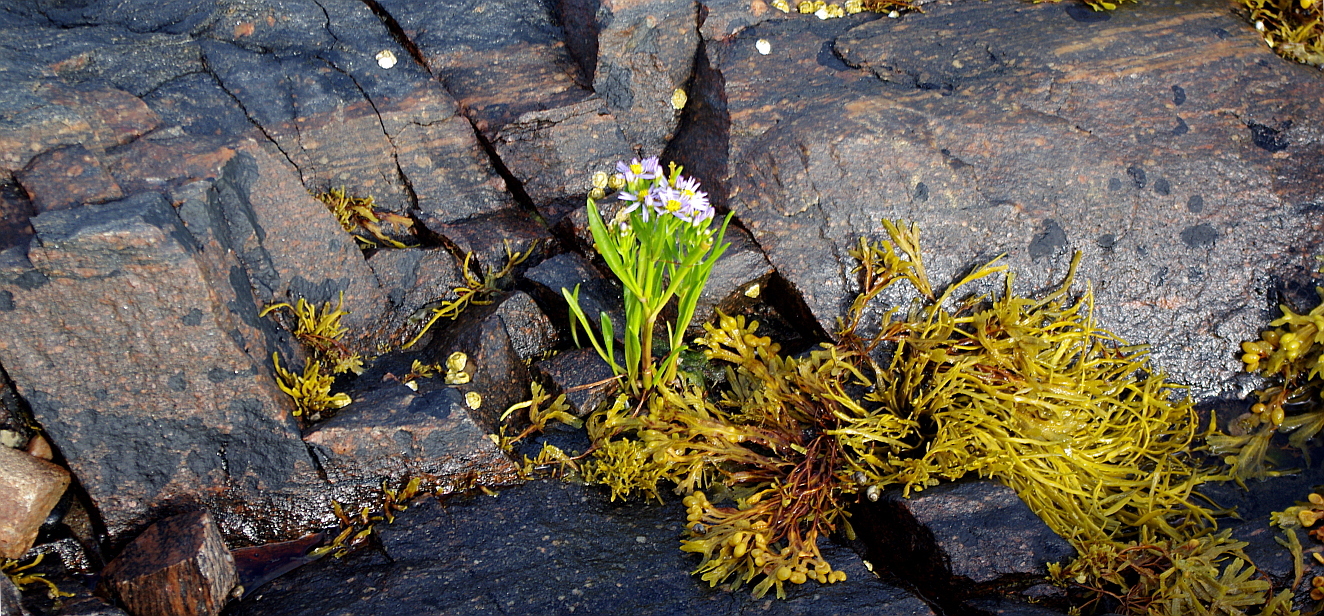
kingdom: Chromista
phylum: Ochrophyta
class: Phaeophyceae
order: Fucales
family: Fucaceae
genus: Fucus
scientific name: Fucus vesiculosus
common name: Bladder wrack
